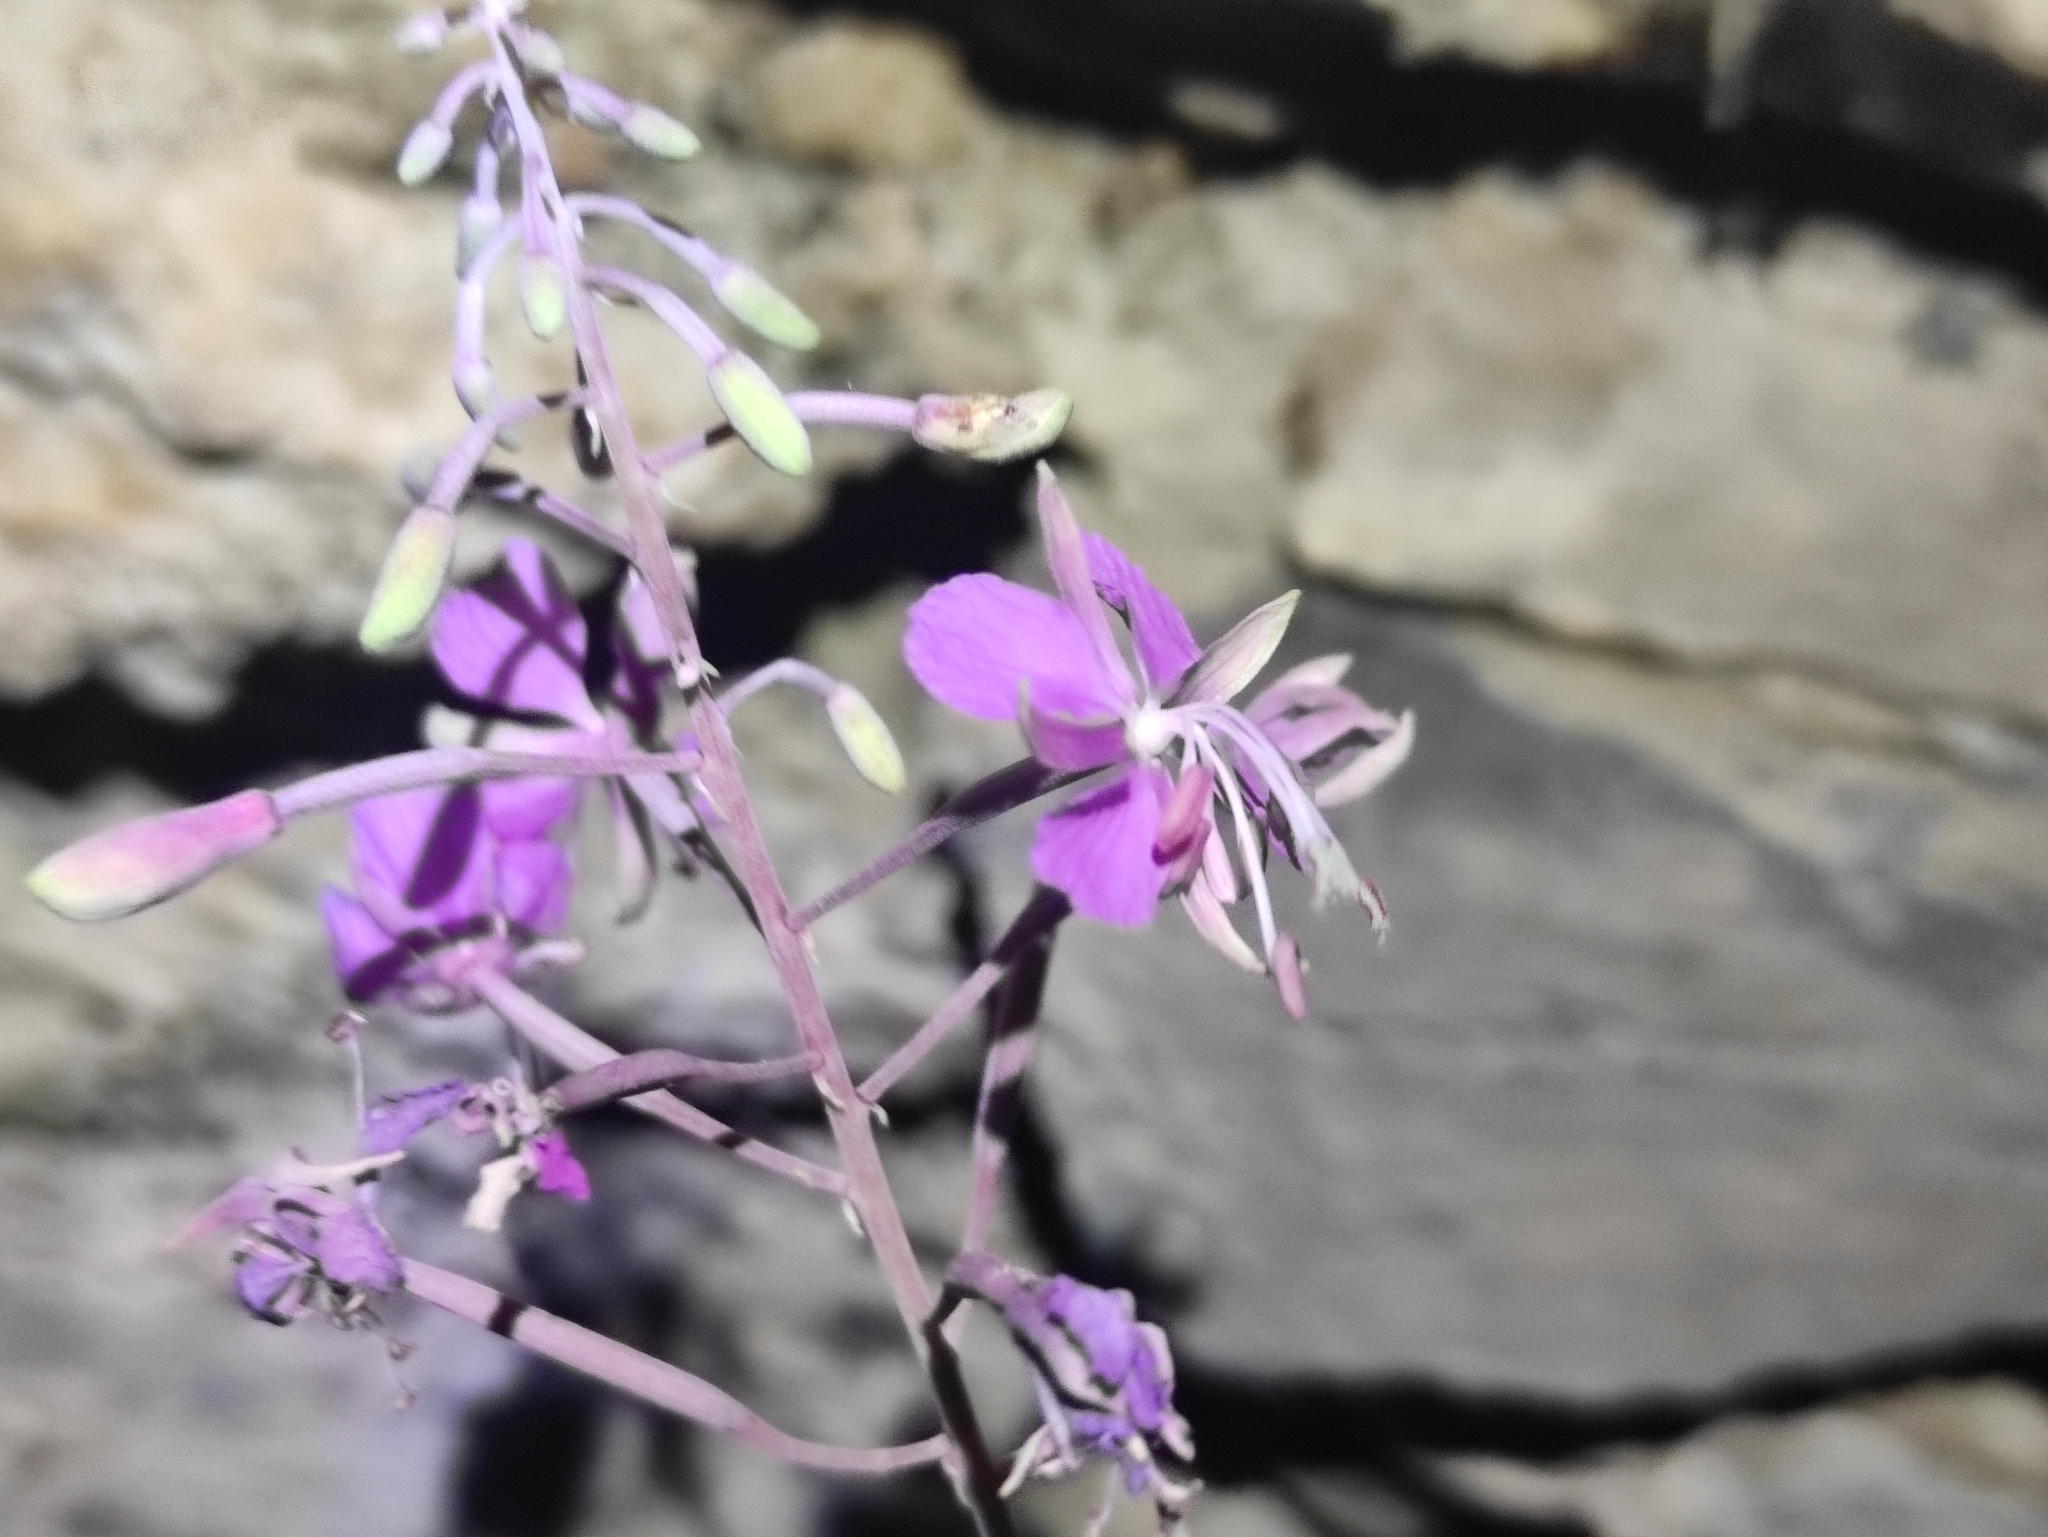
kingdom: Plantae
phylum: Tracheophyta
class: Magnoliopsida
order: Myrtales
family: Onagraceae
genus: Chamaenerion
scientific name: Chamaenerion angustifolium
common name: Fireweed
